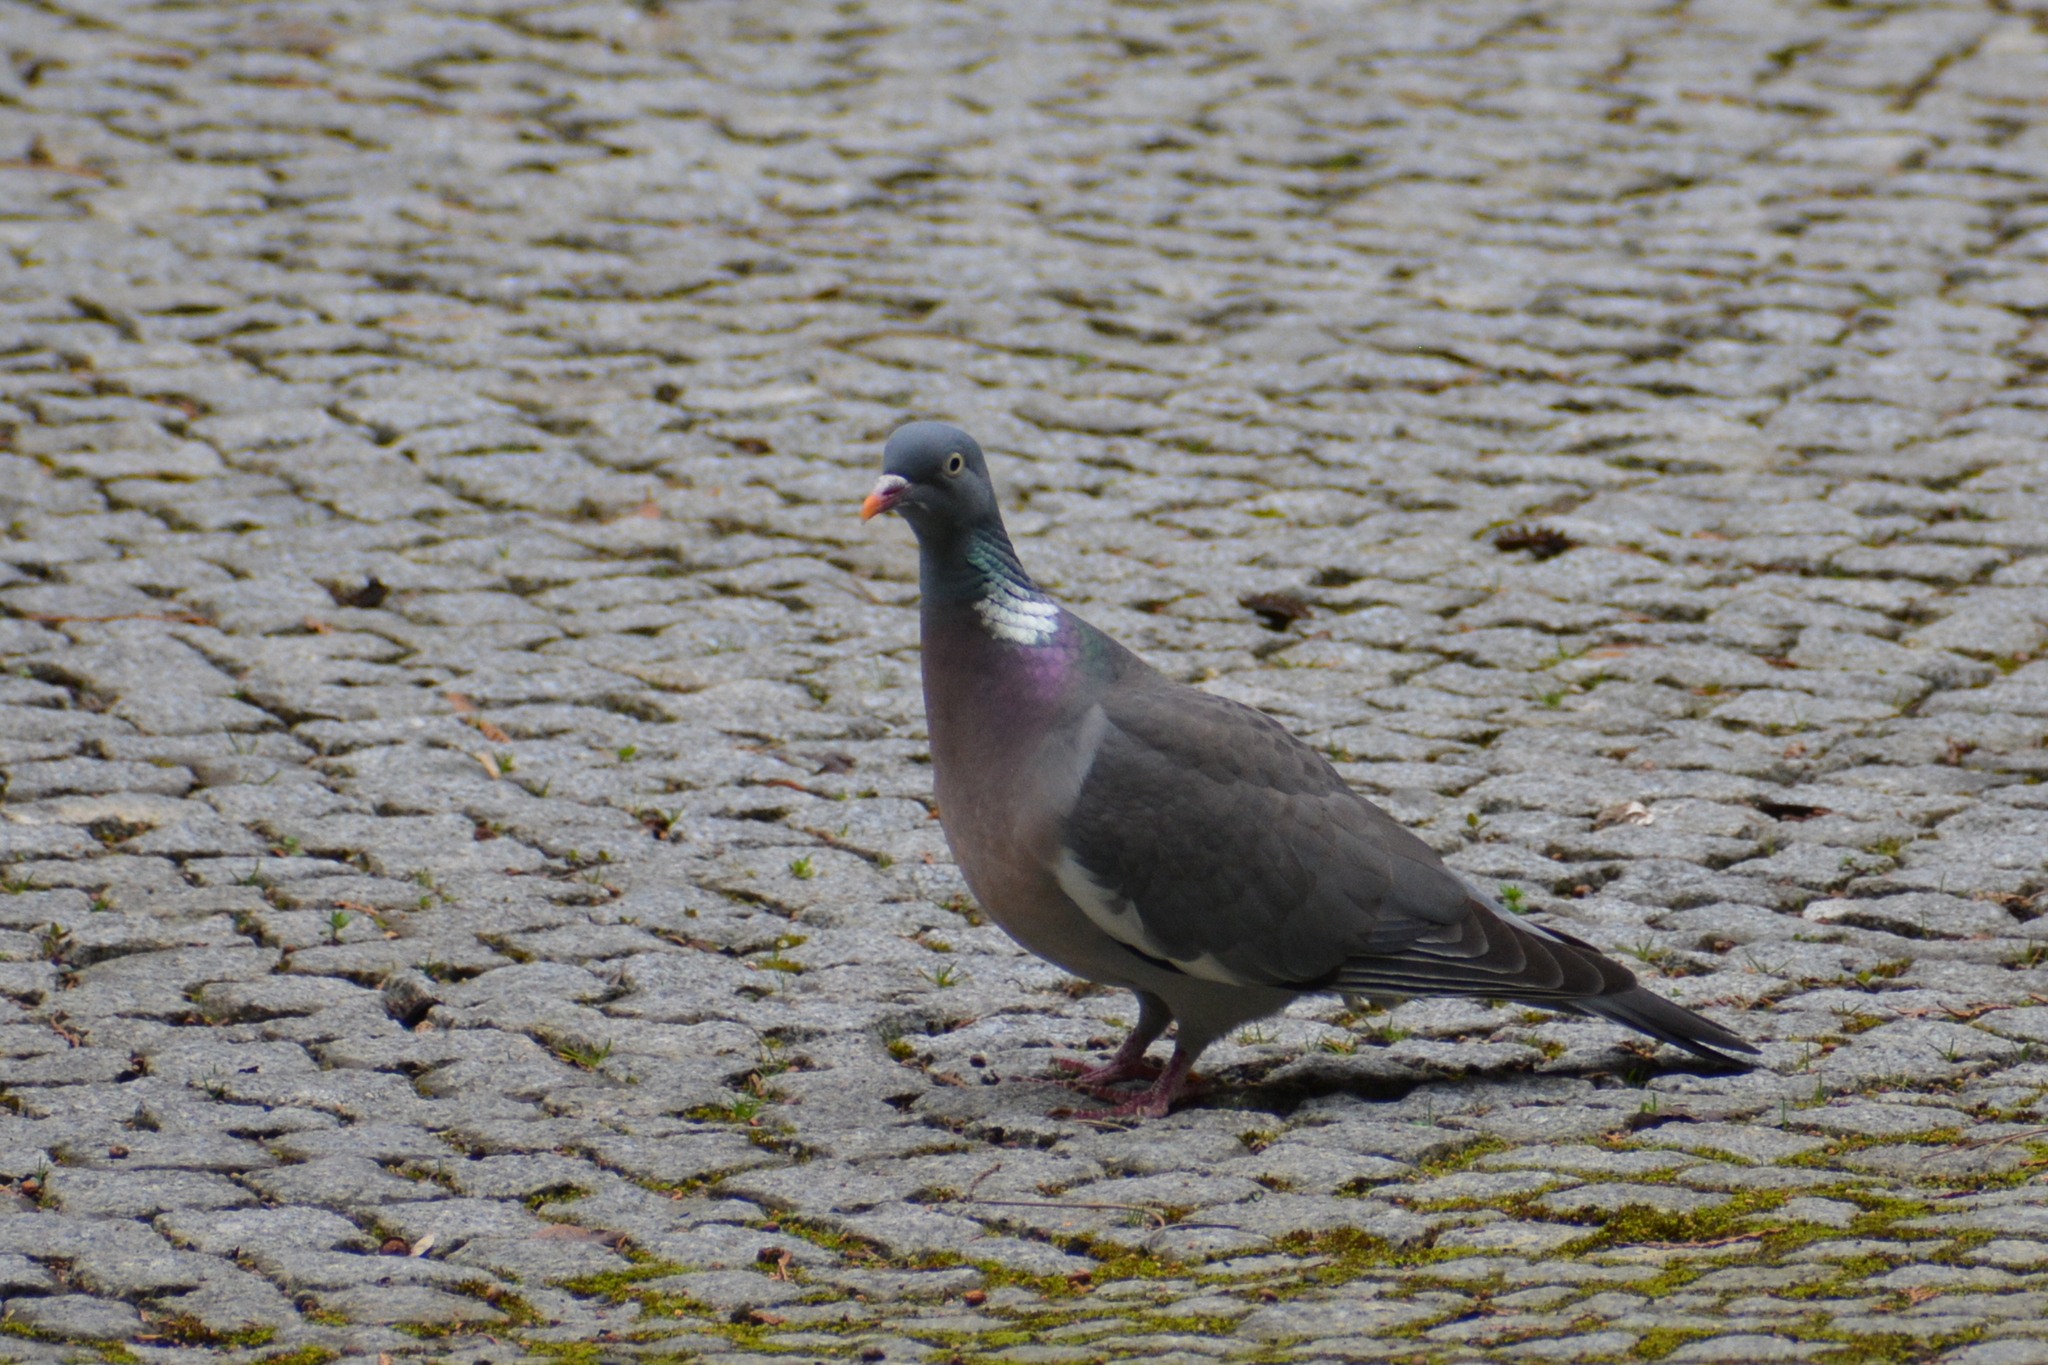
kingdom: Animalia
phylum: Chordata
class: Aves
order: Columbiformes
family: Columbidae
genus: Columba
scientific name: Columba palumbus
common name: Common wood pigeon
